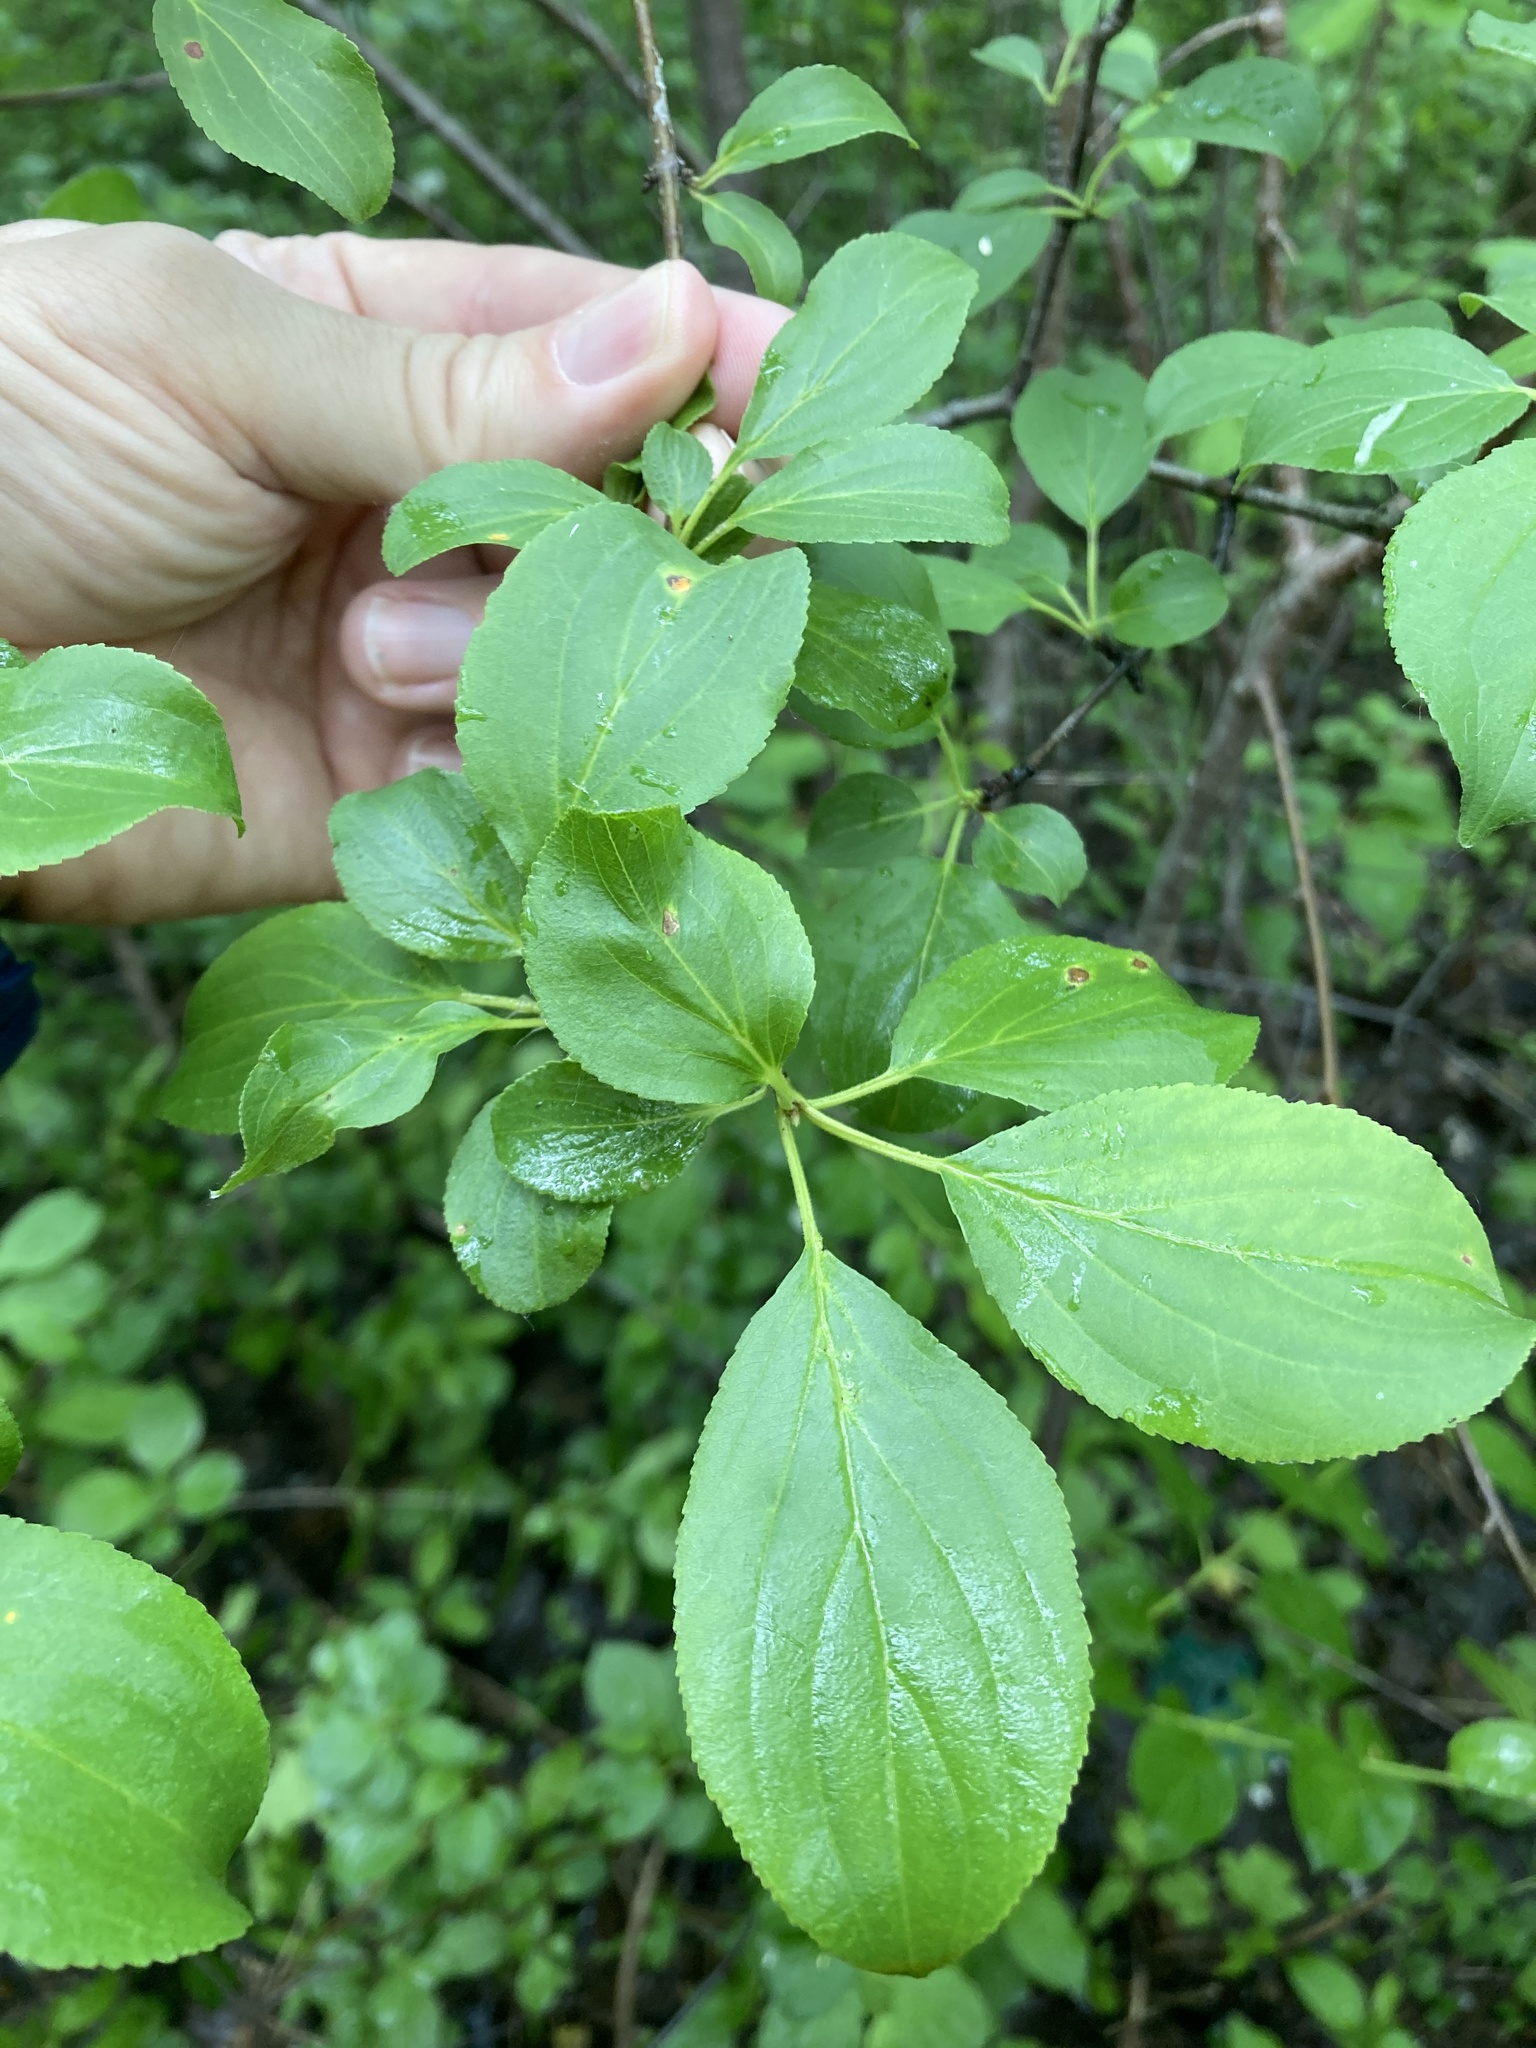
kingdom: Plantae
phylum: Tracheophyta
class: Magnoliopsida
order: Rosales
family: Rhamnaceae
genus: Rhamnus
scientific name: Rhamnus cathartica
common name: Common buckthorn
